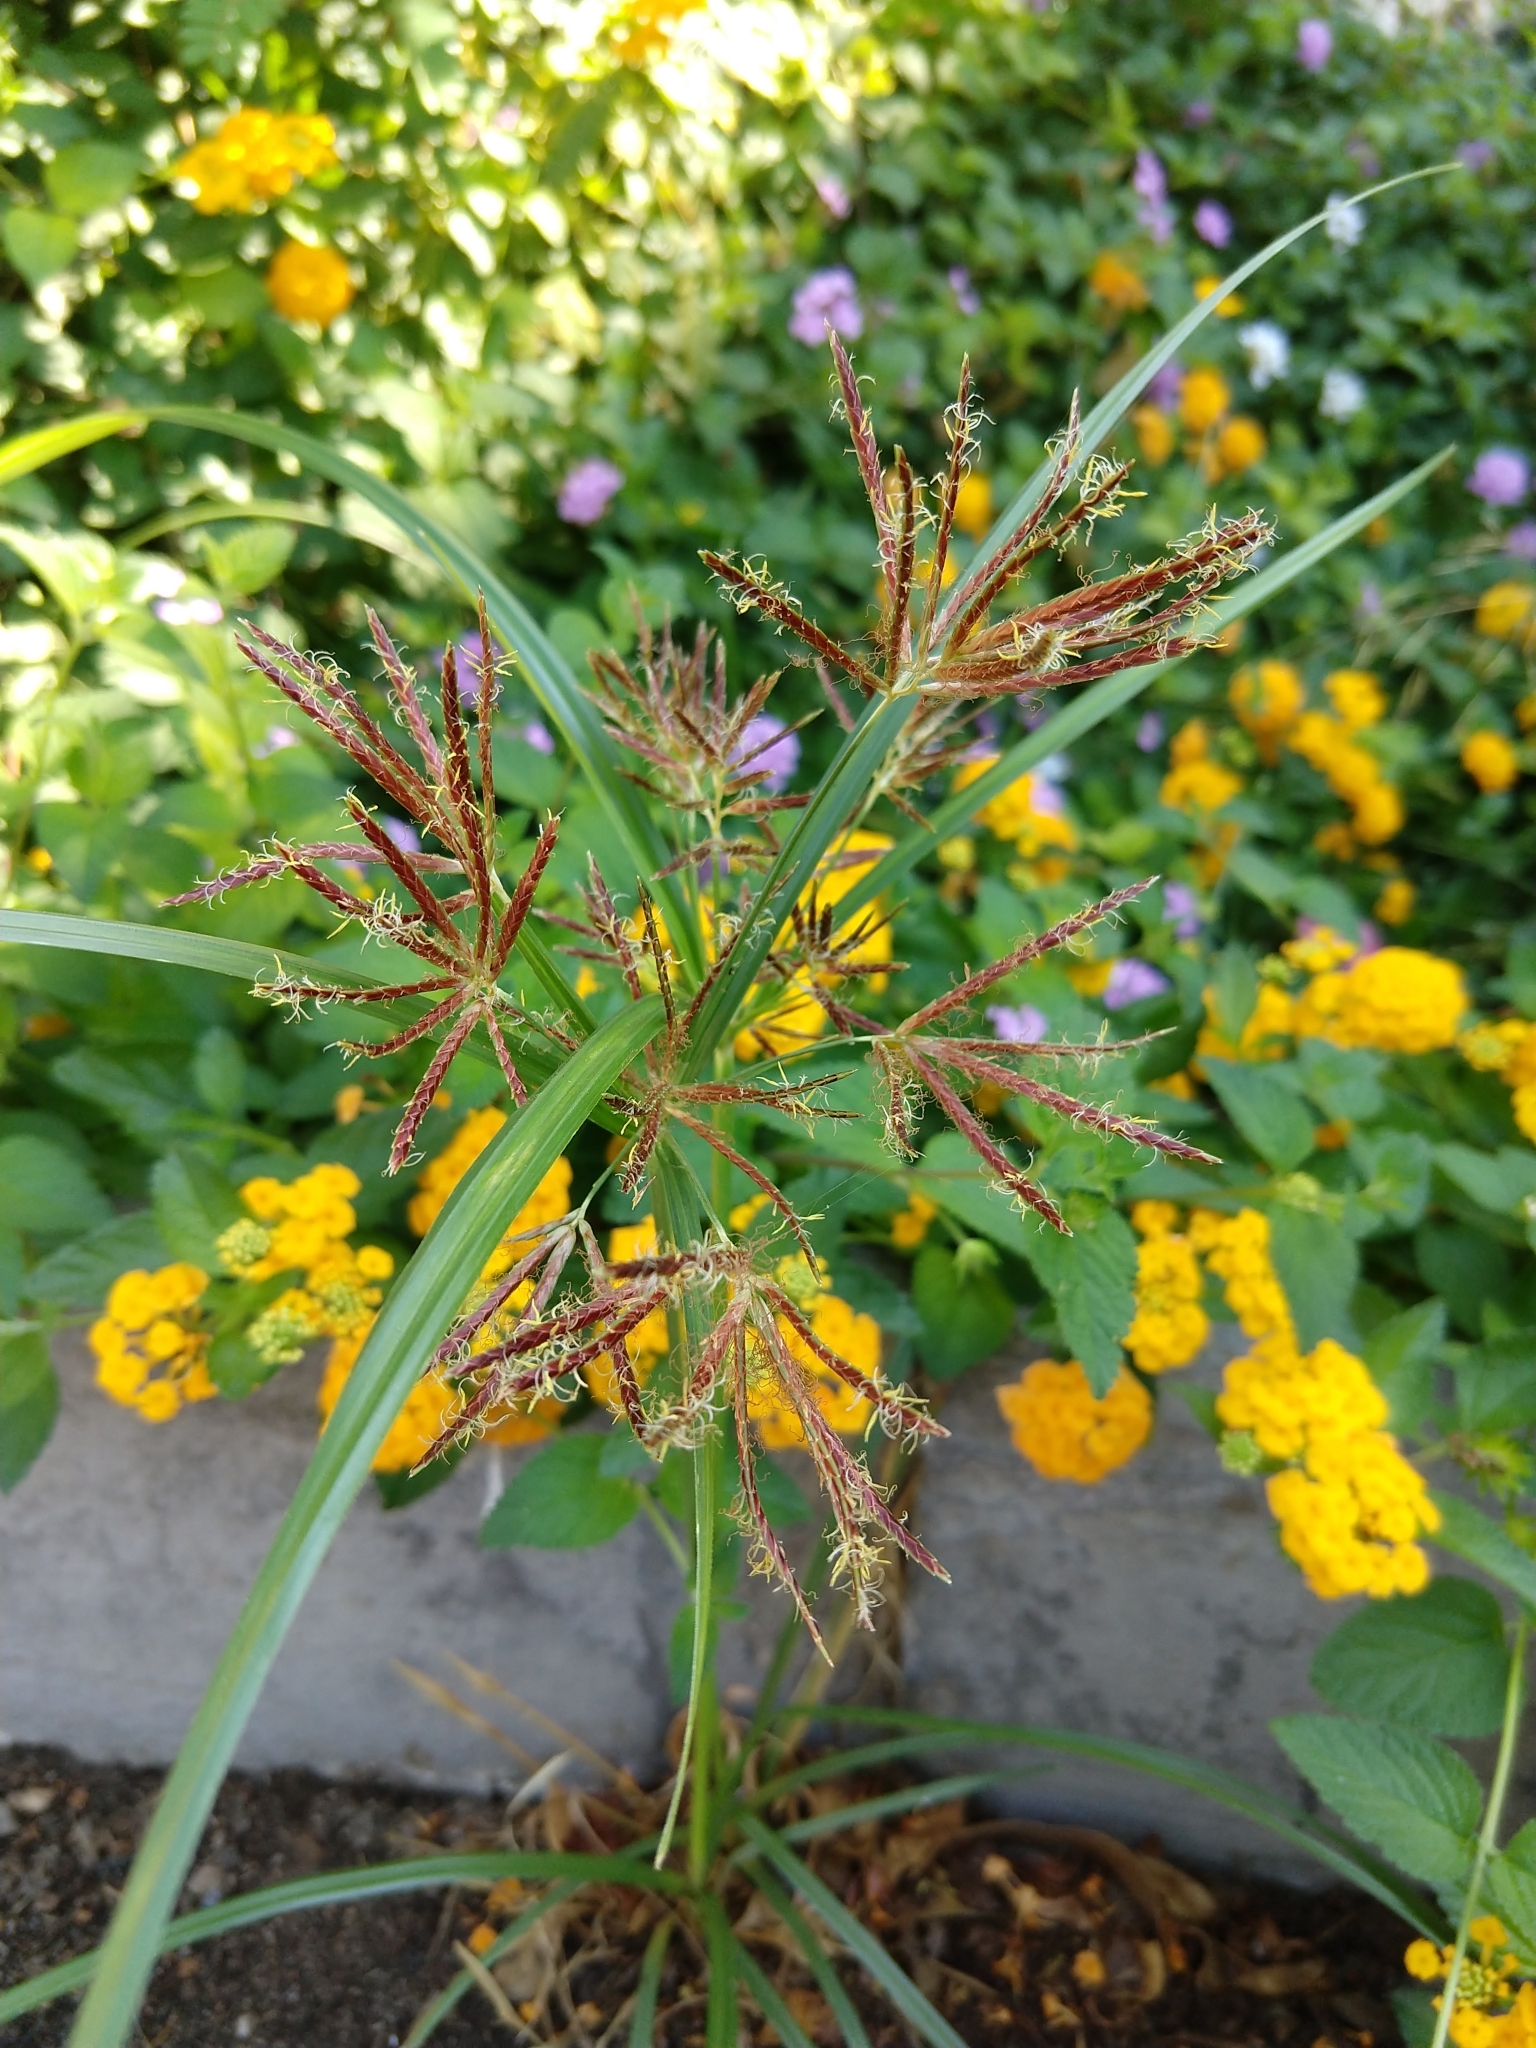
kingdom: Plantae
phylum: Tracheophyta
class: Liliopsida
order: Poales
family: Cyperaceae
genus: Cyperus
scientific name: Cyperus rotundus
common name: Nutgrass
